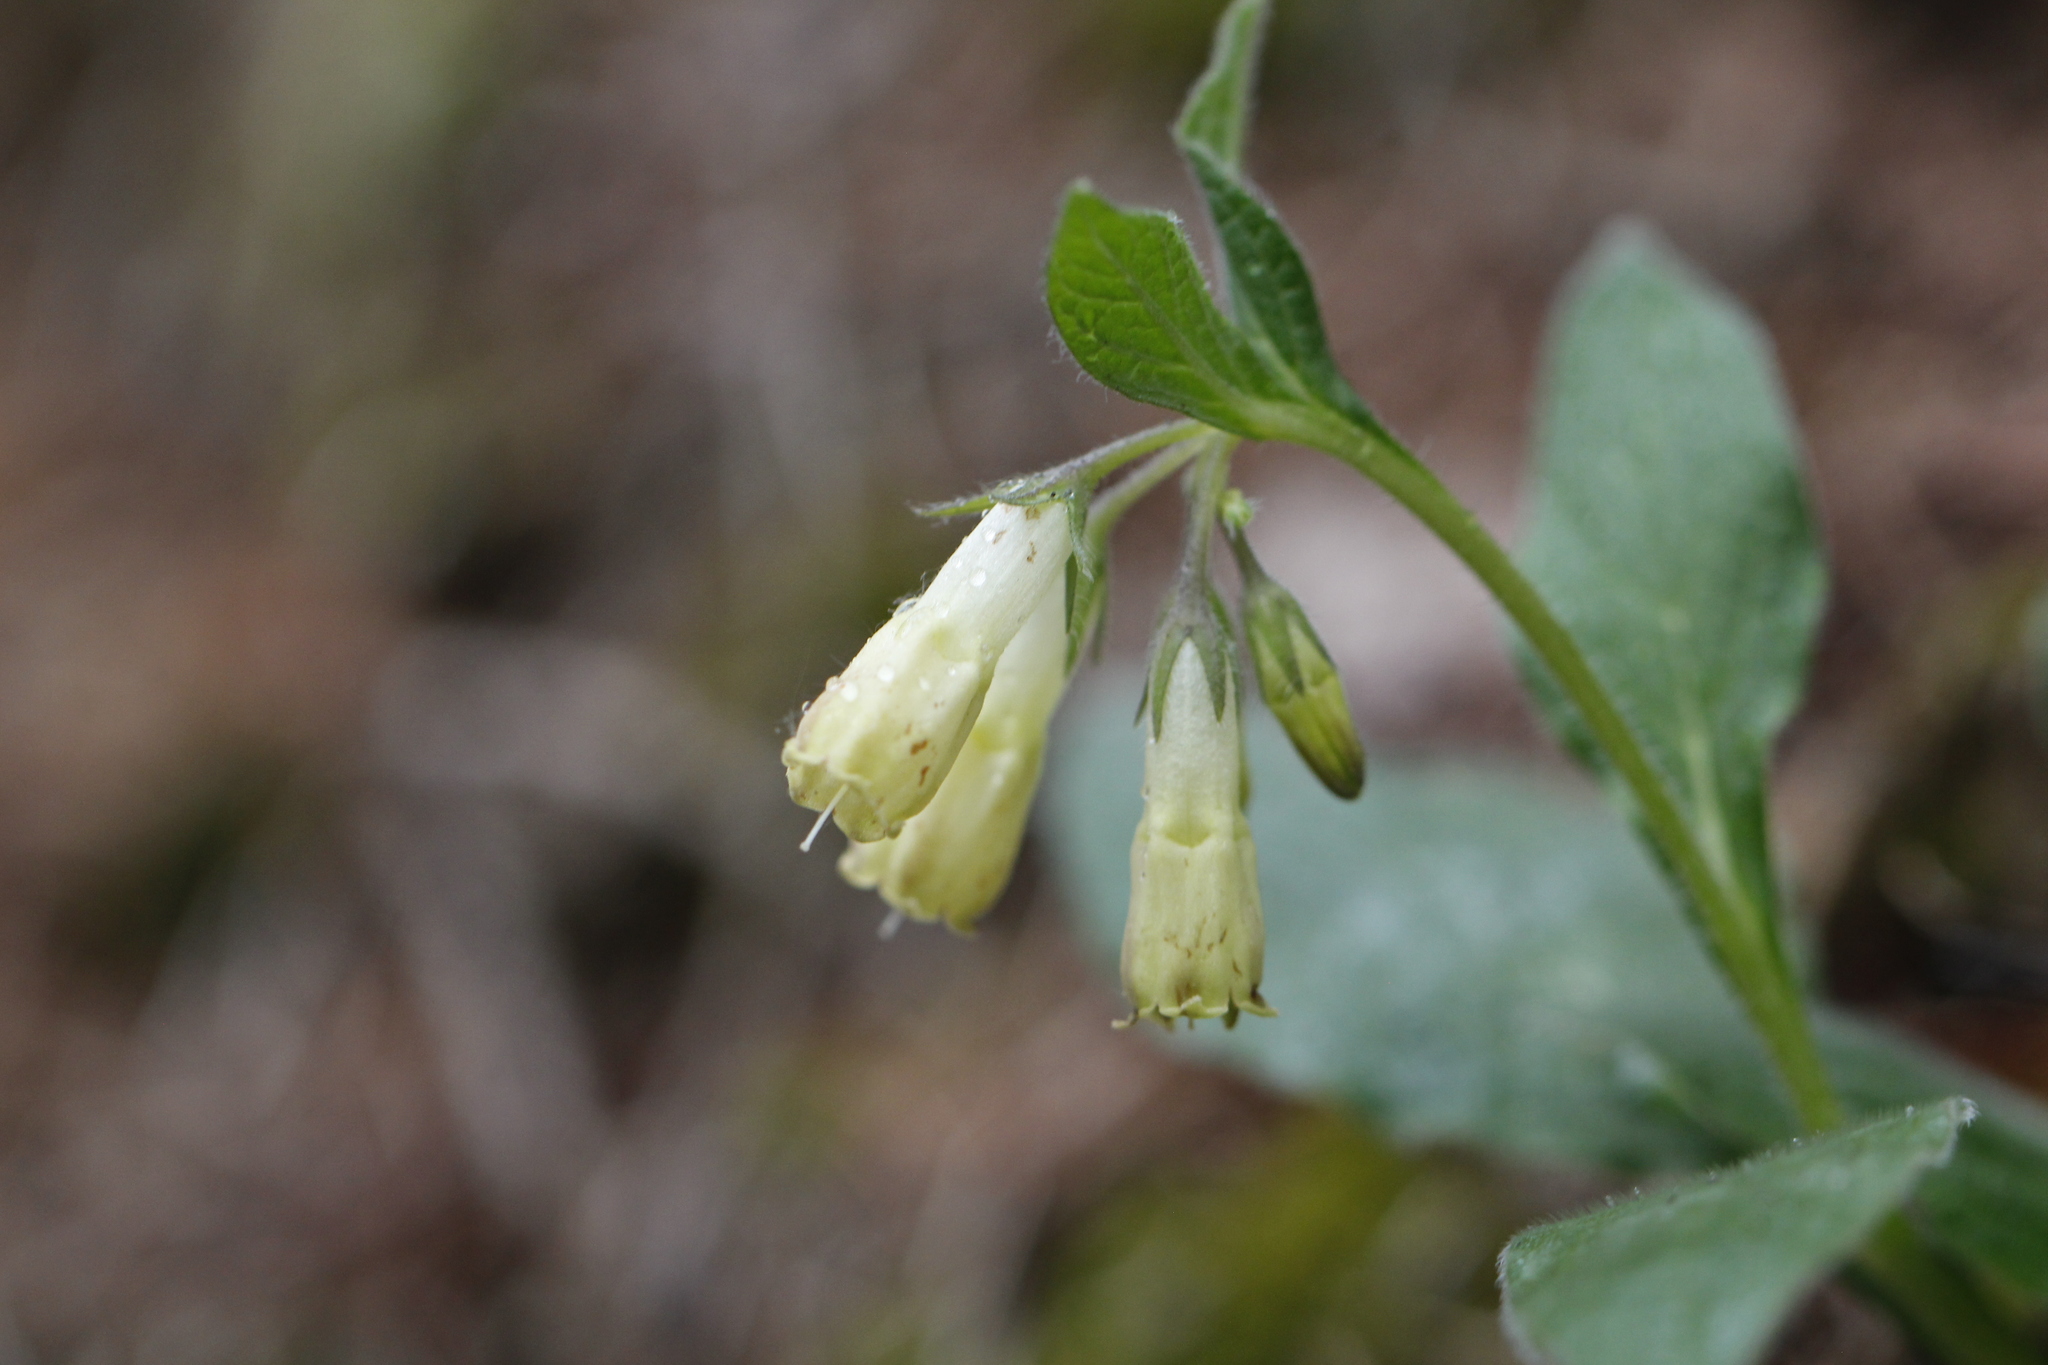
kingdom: Plantae
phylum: Tracheophyta
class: Magnoliopsida
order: Boraginales
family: Boraginaceae
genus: Symphytum
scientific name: Symphytum tuberosum
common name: Tuberous comfrey
